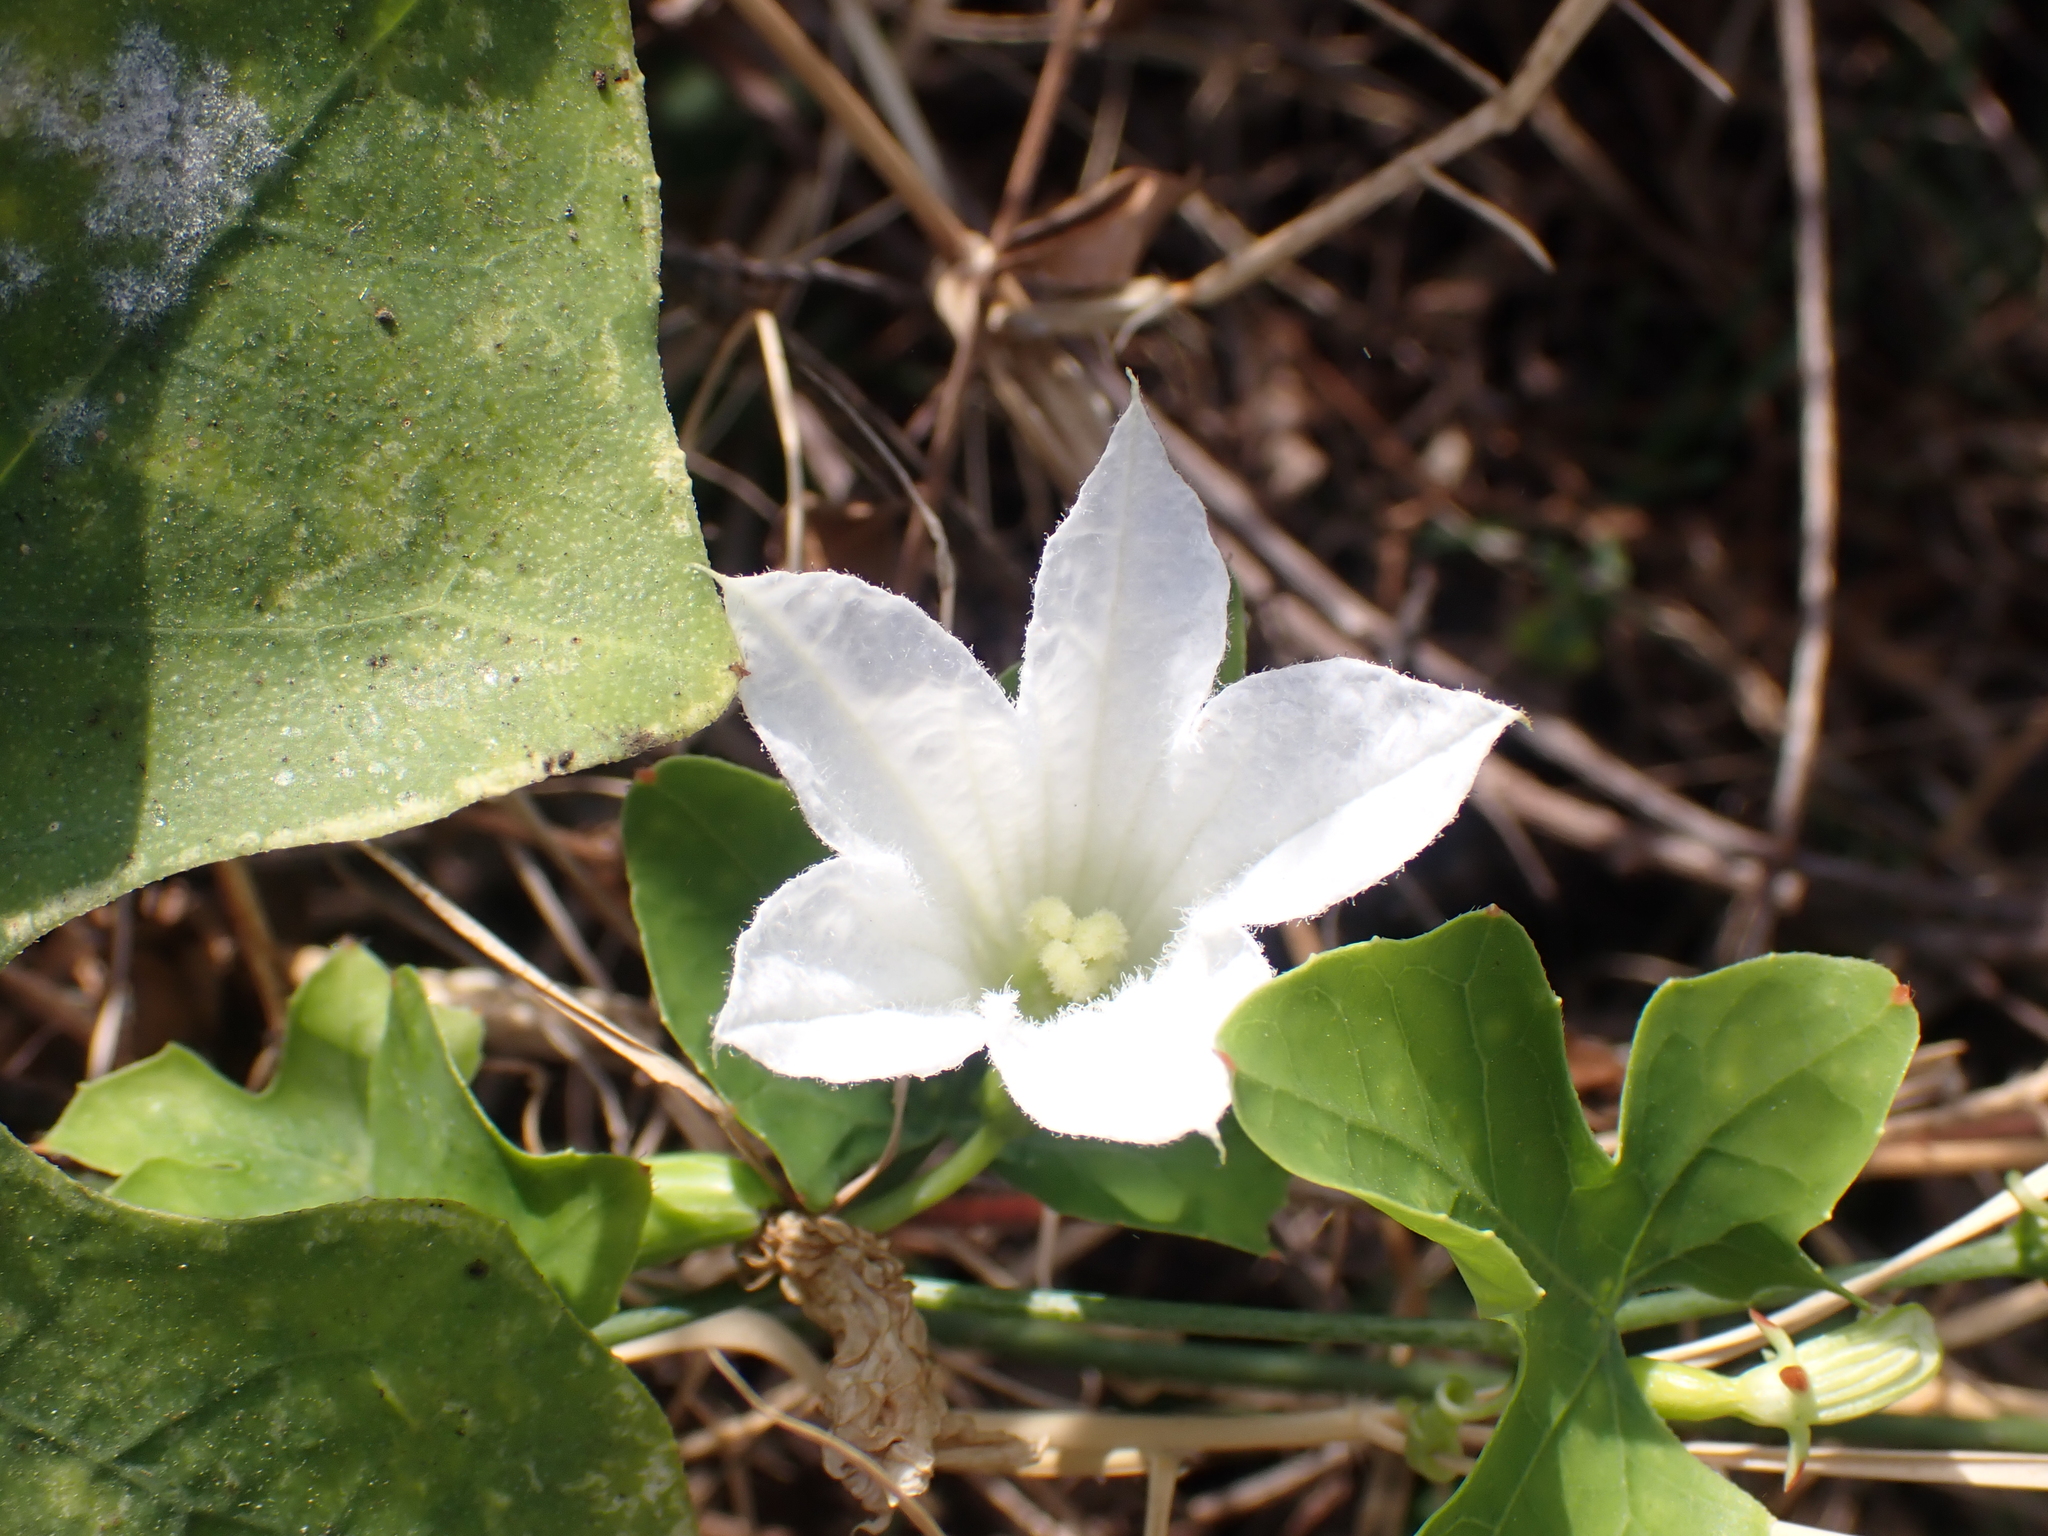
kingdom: Plantae
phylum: Tracheophyta
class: Magnoliopsida
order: Cucurbitales
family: Cucurbitaceae
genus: Coccinia
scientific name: Coccinia grandis
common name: Ivy gourd
